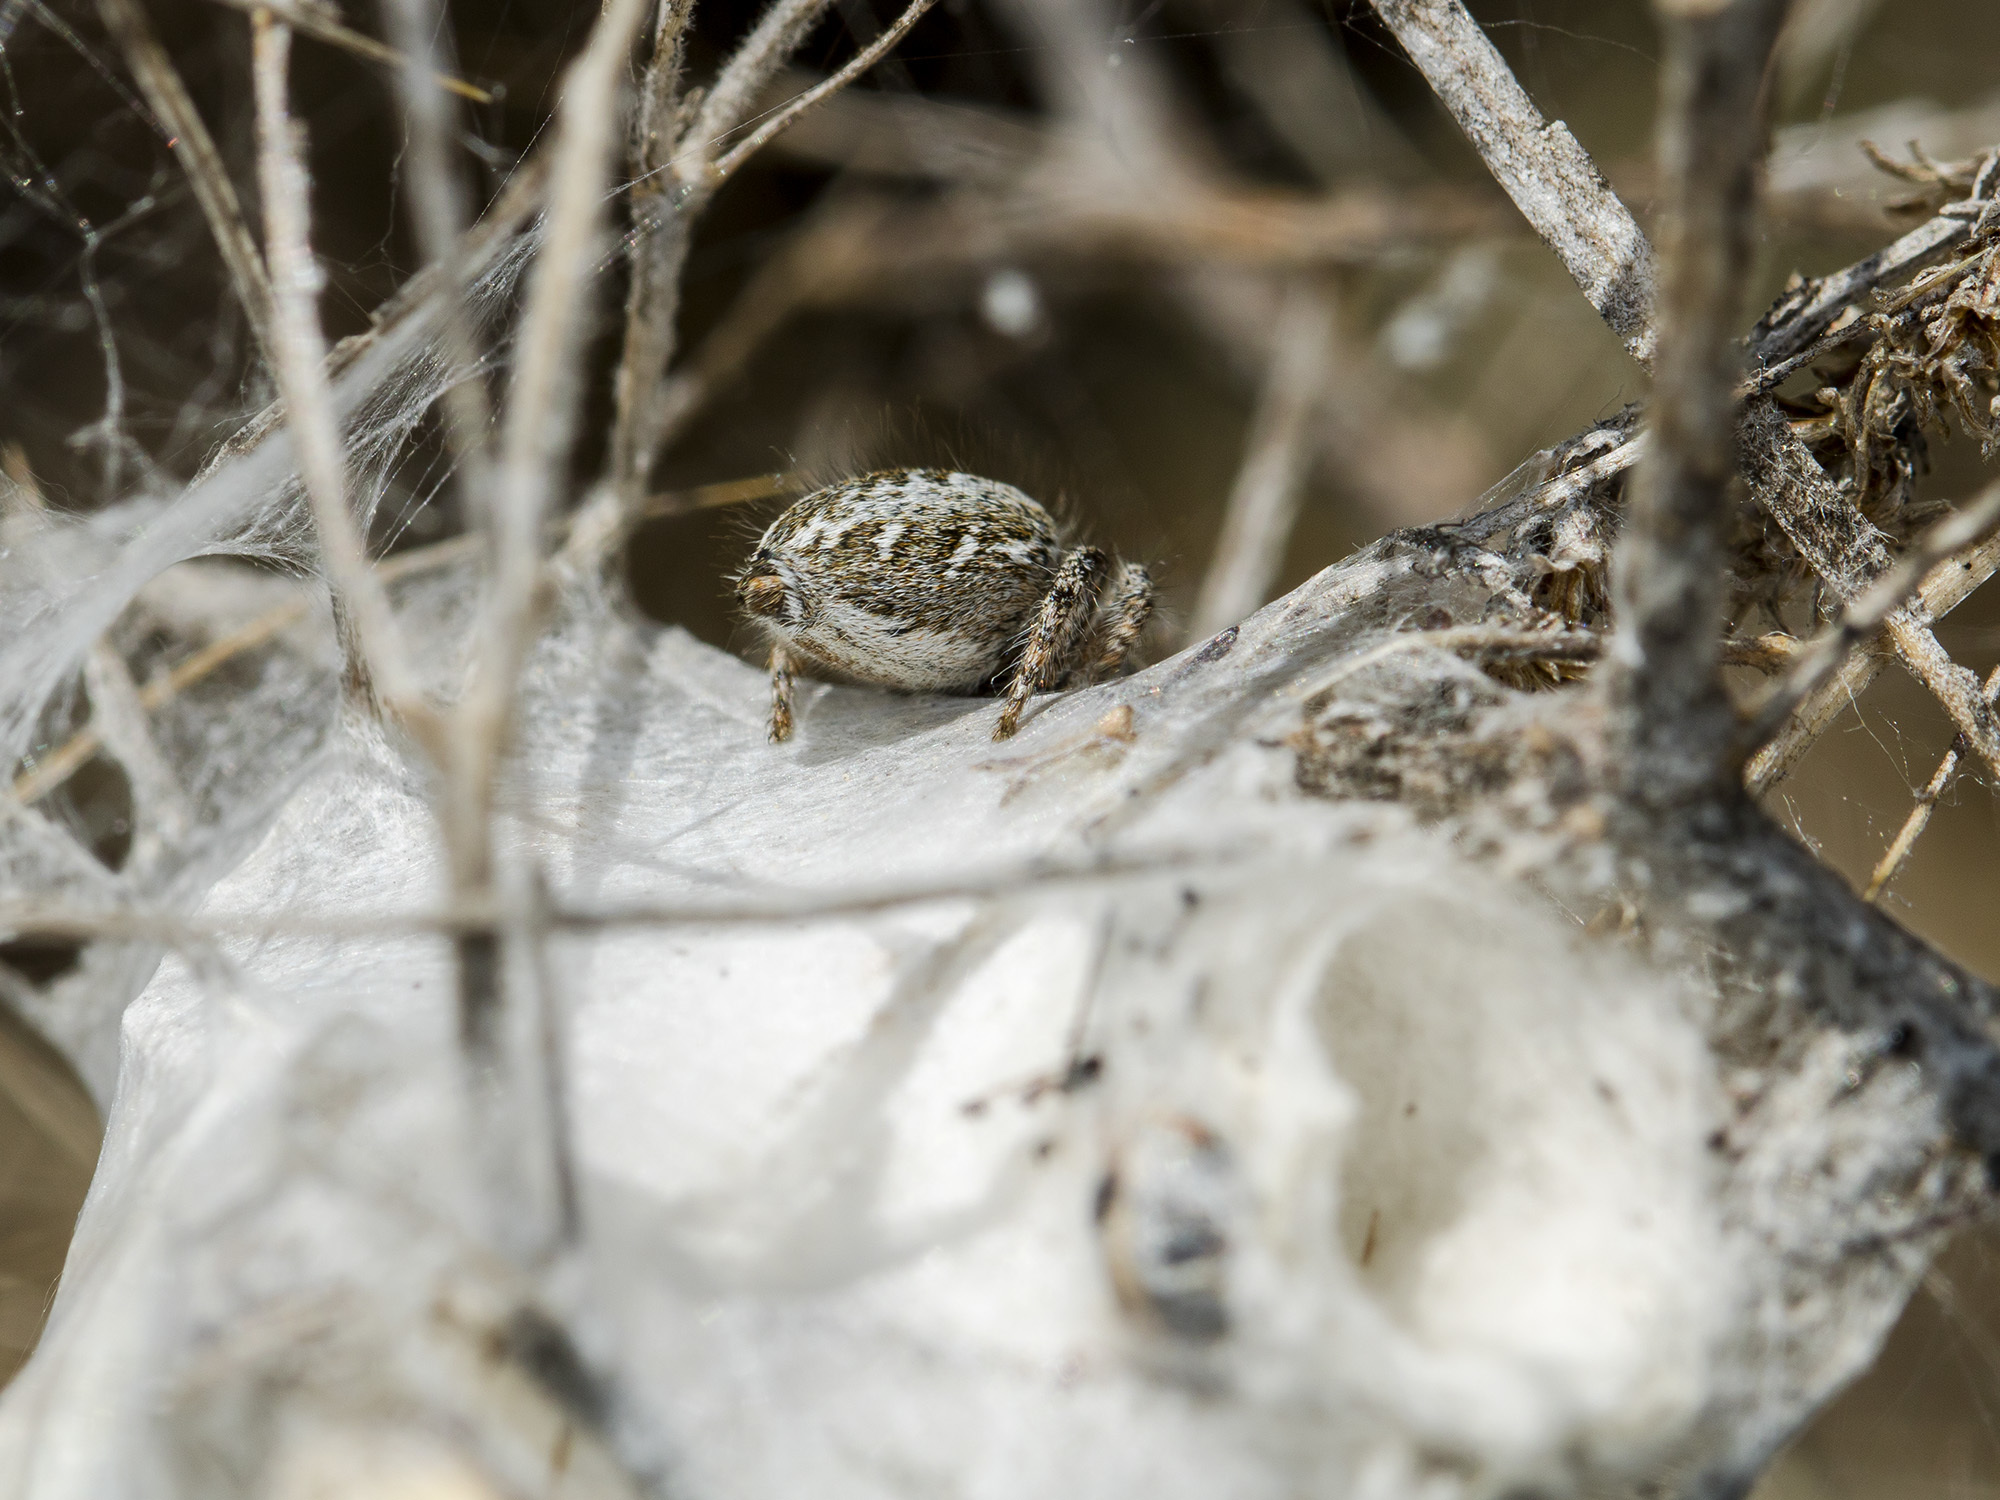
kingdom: Animalia
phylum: Arthropoda
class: Arachnida
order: Araneae
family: Salticidae
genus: Mogrus
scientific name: Mogrus larisae
